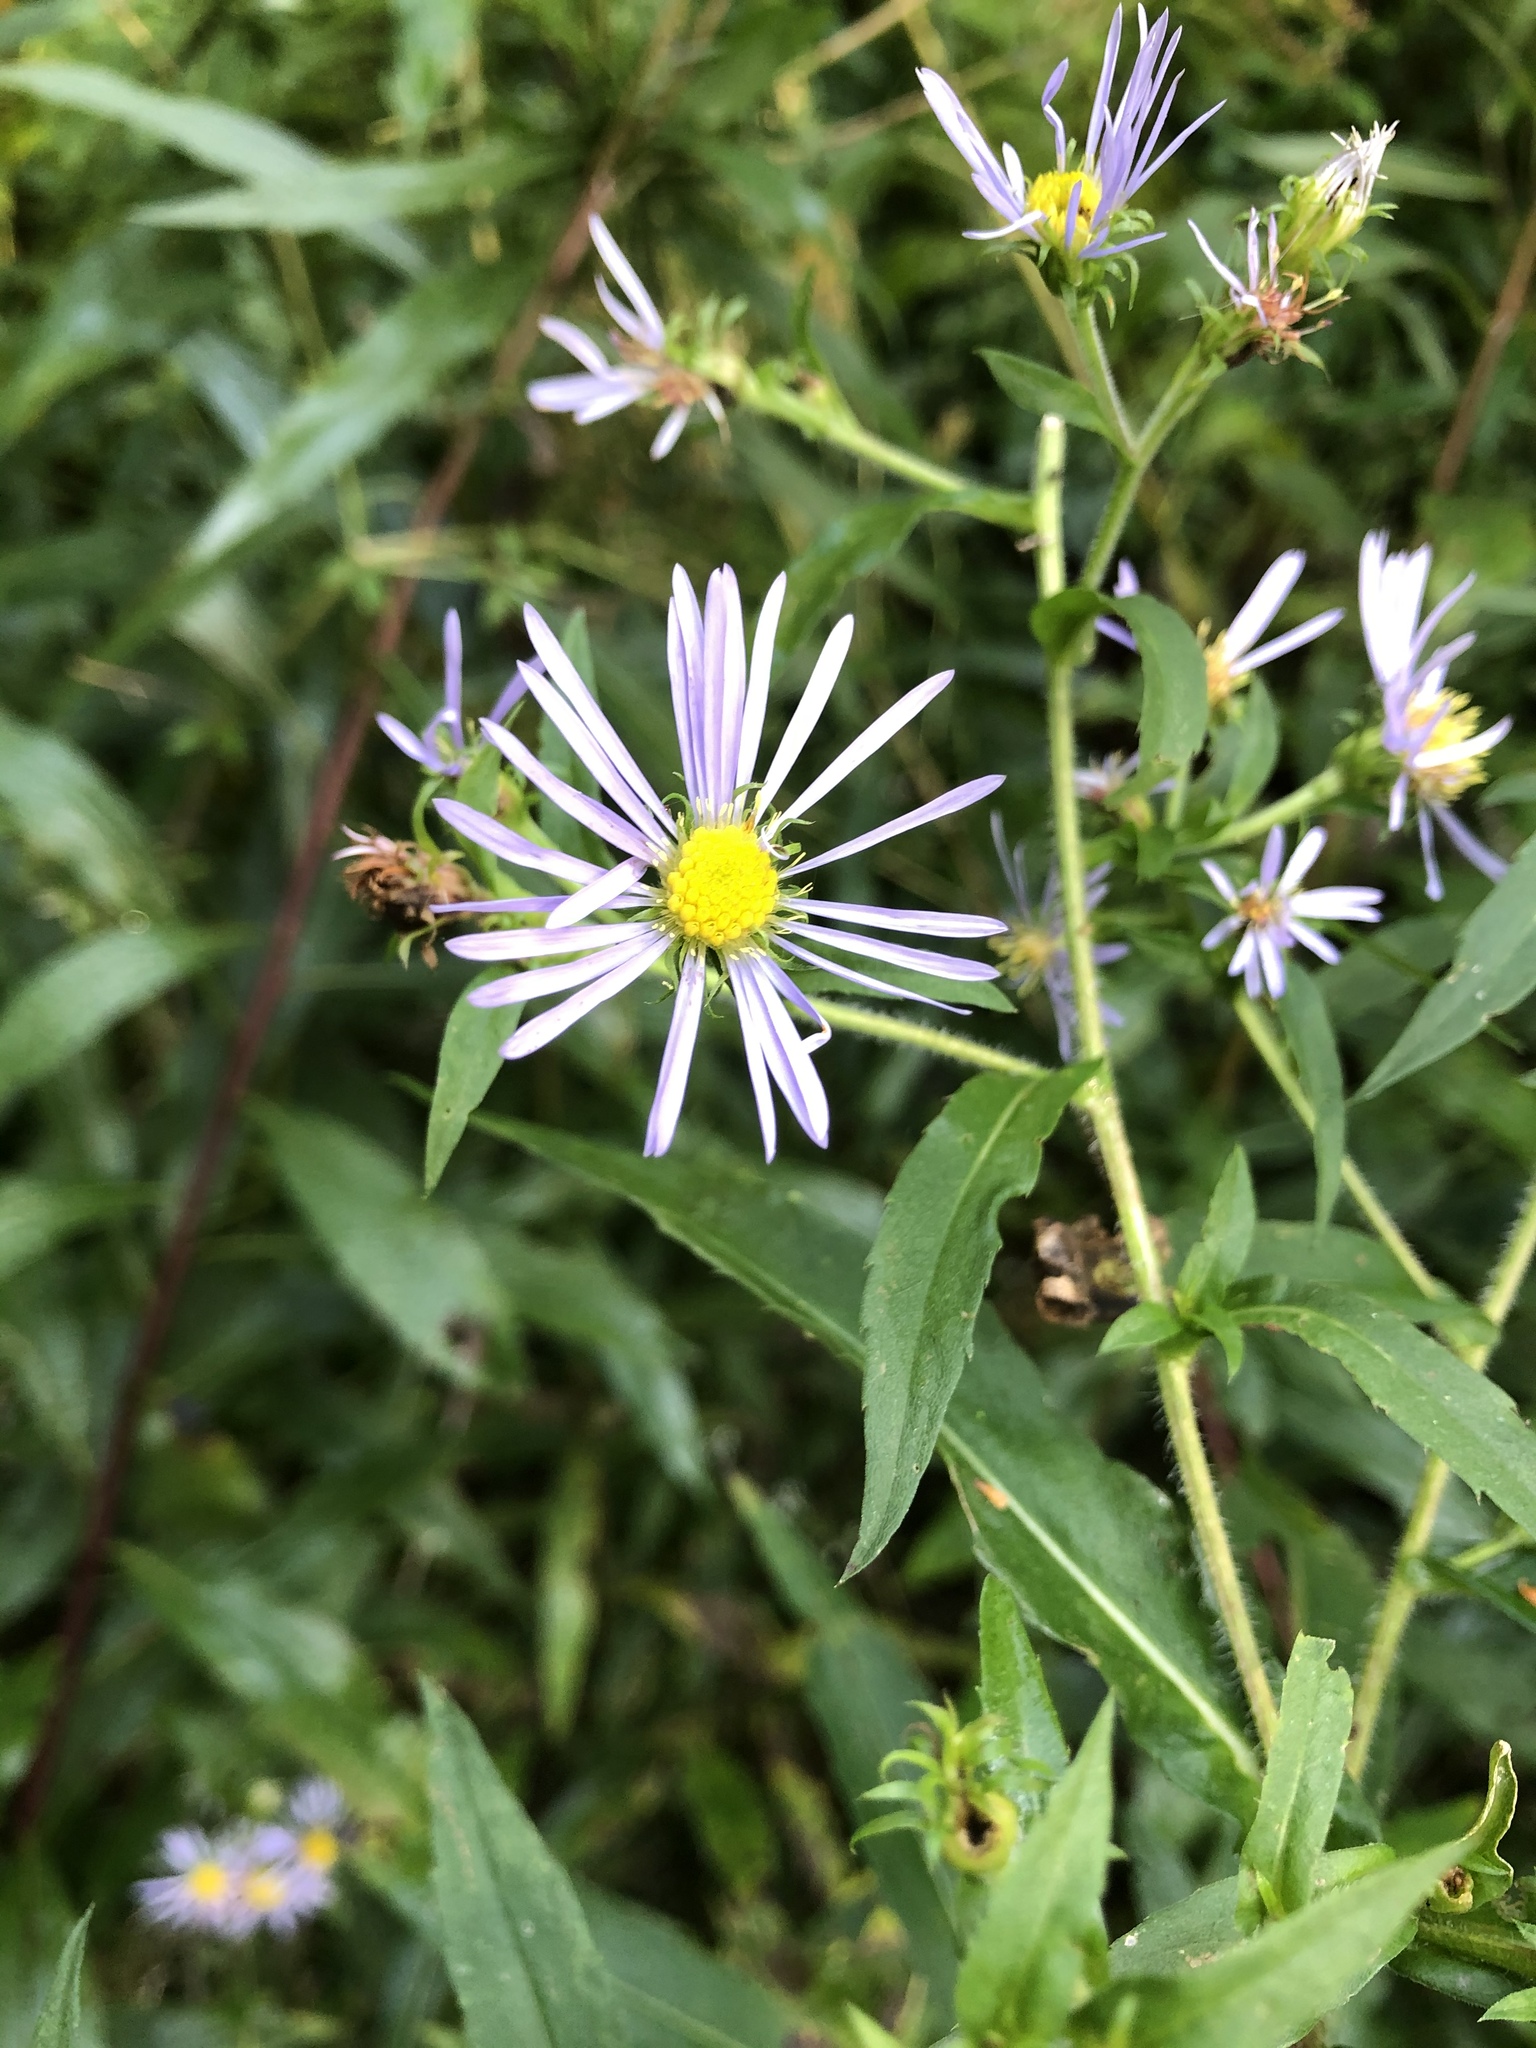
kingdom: Plantae
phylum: Tracheophyta
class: Magnoliopsida
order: Asterales
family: Asteraceae
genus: Symphyotrichum
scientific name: Symphyotrichum prenanthoides
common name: Crooked-stem aster
